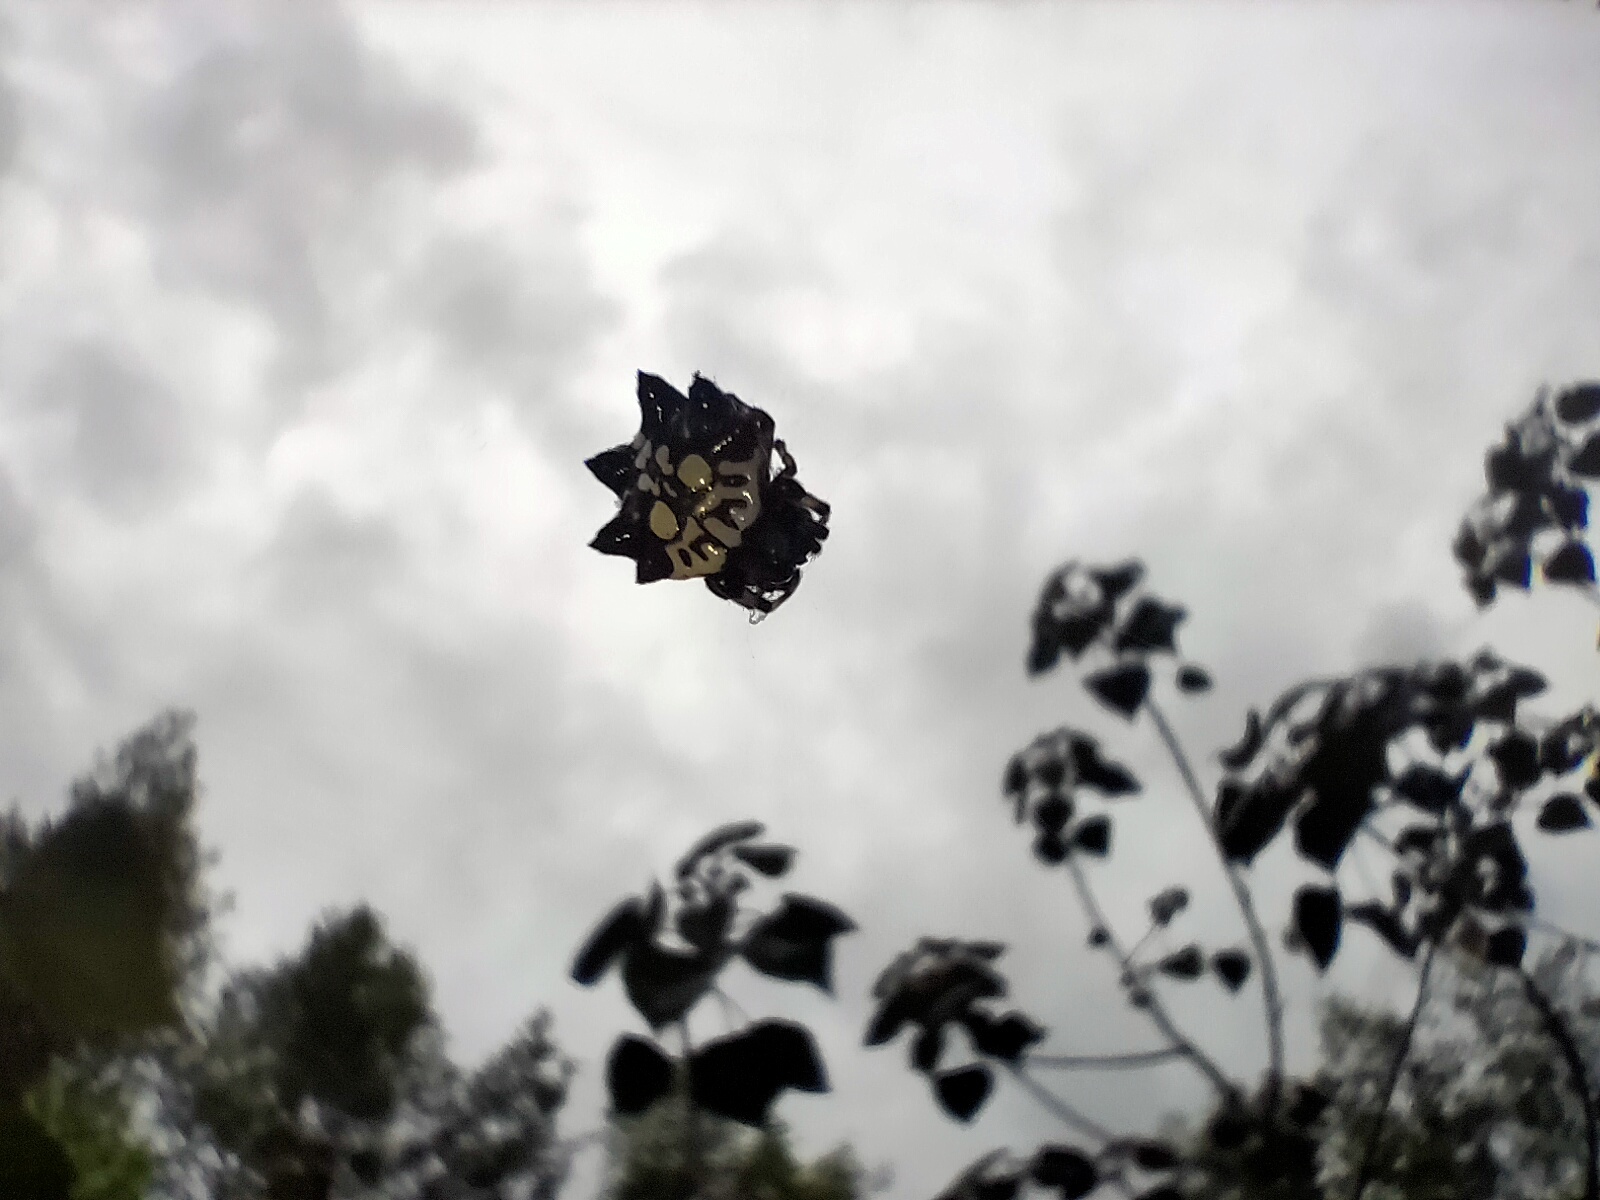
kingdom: Animalia
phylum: Arthropoda
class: Arachnida
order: Araneae
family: Araneidae
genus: Thelacantha
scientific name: Thelacantha brevispina
